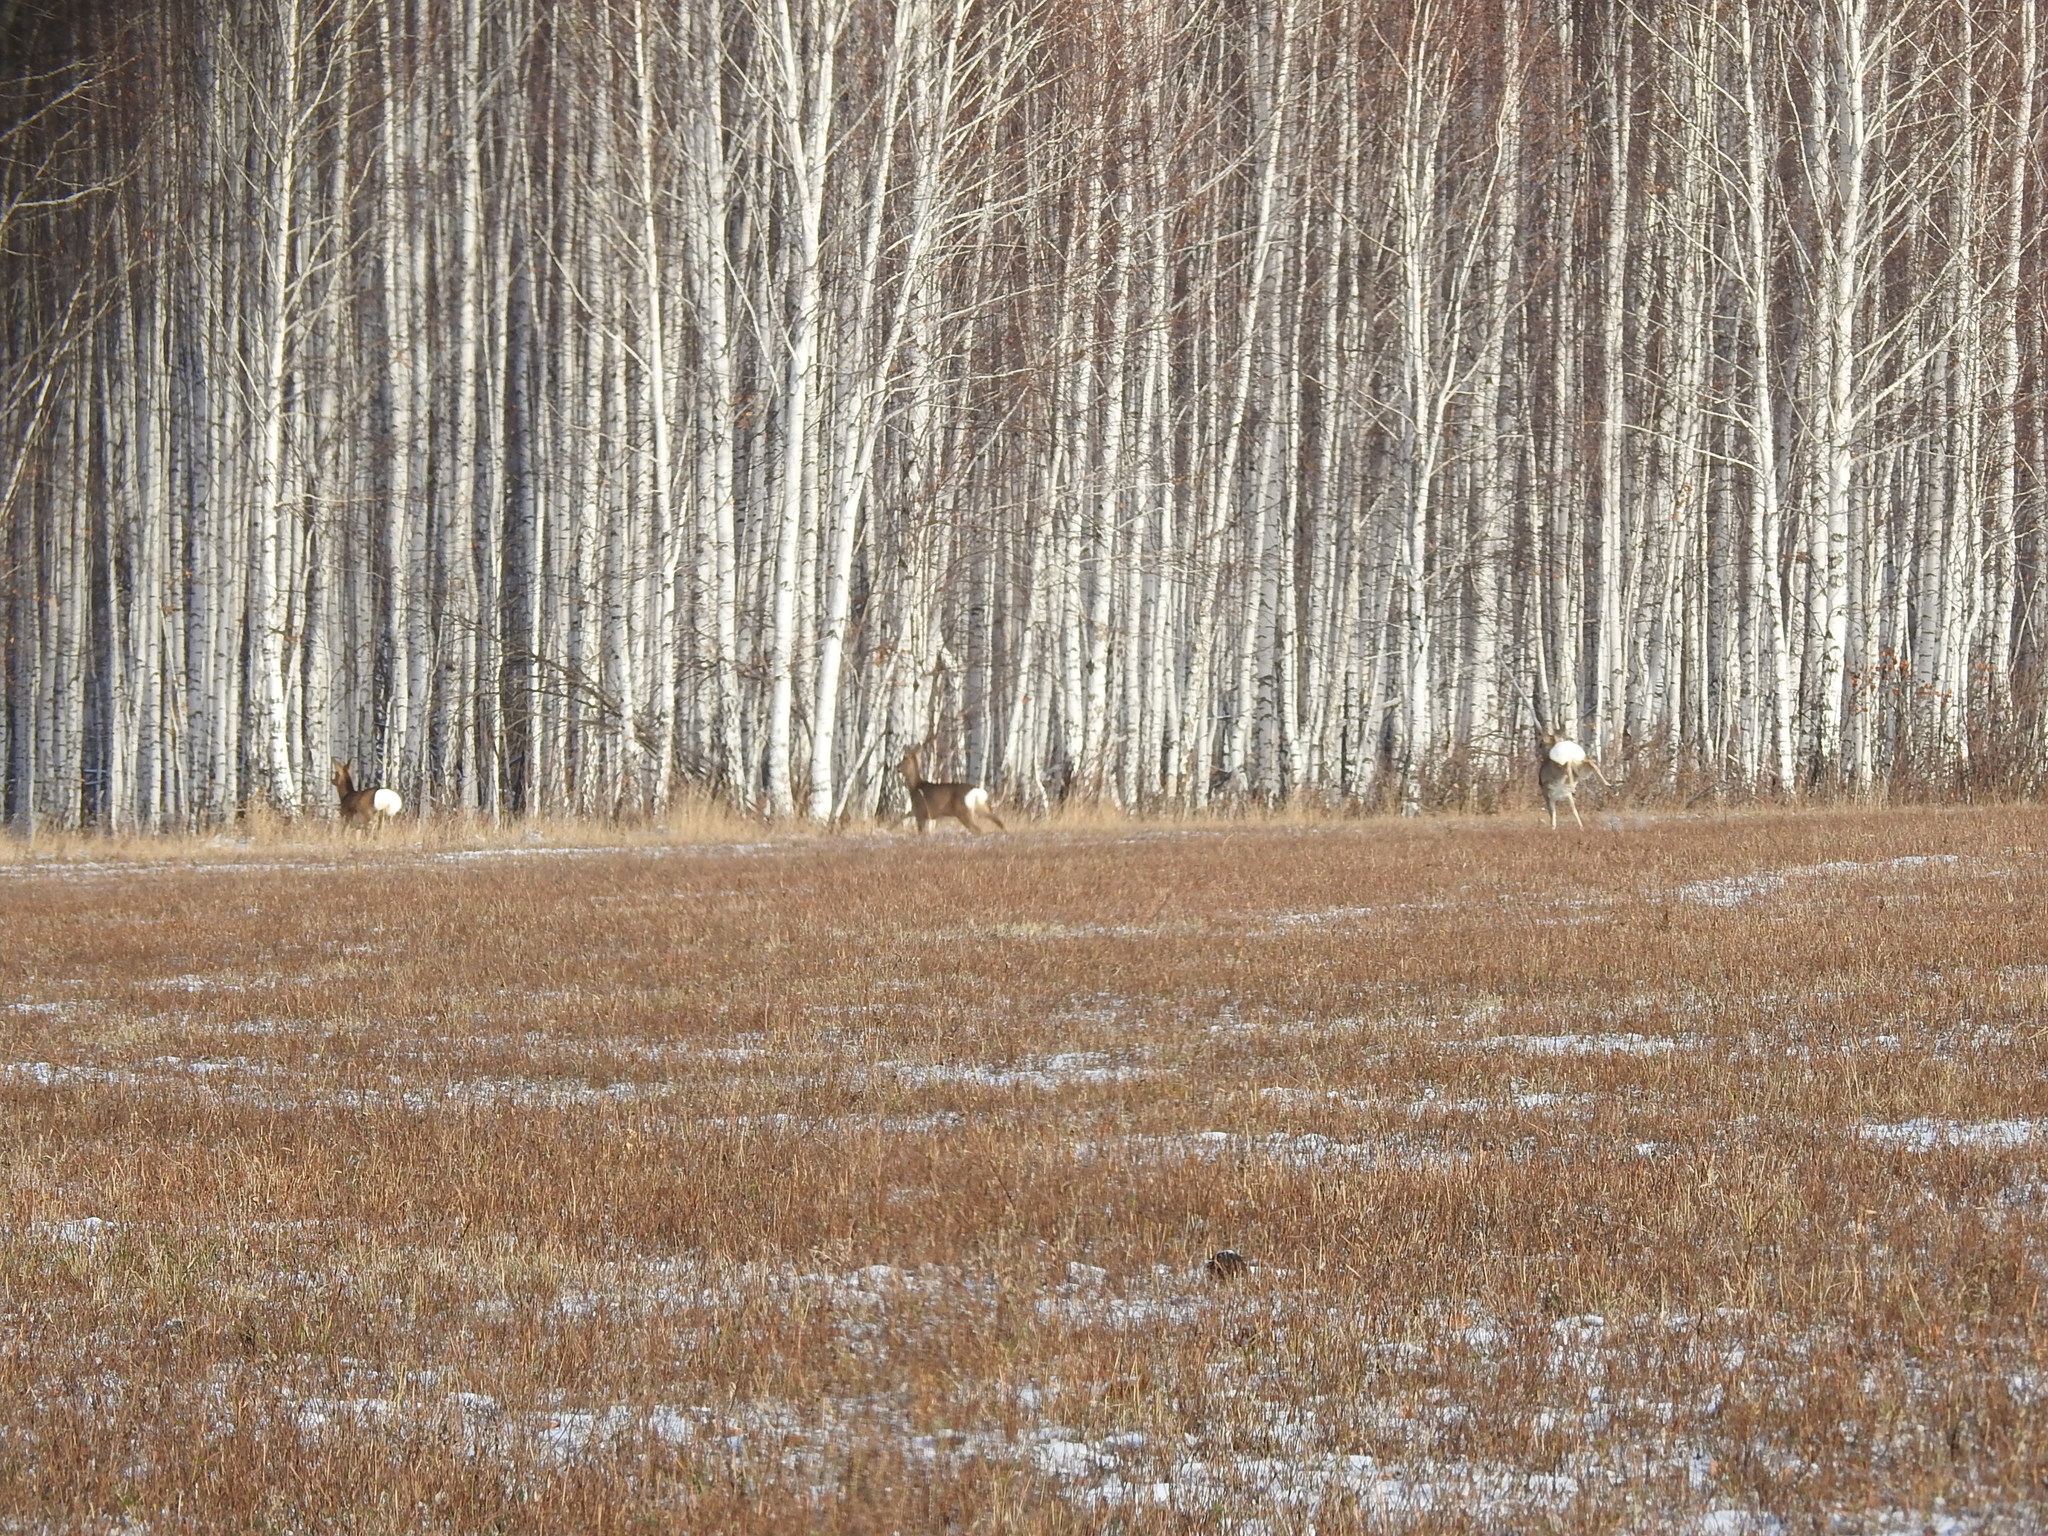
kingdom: Animalia
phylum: Chordata
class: Mammalia
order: Artiodactyla
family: Cervidae
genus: Capreolus
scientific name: Capreolus pygargus
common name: Siberian roe
